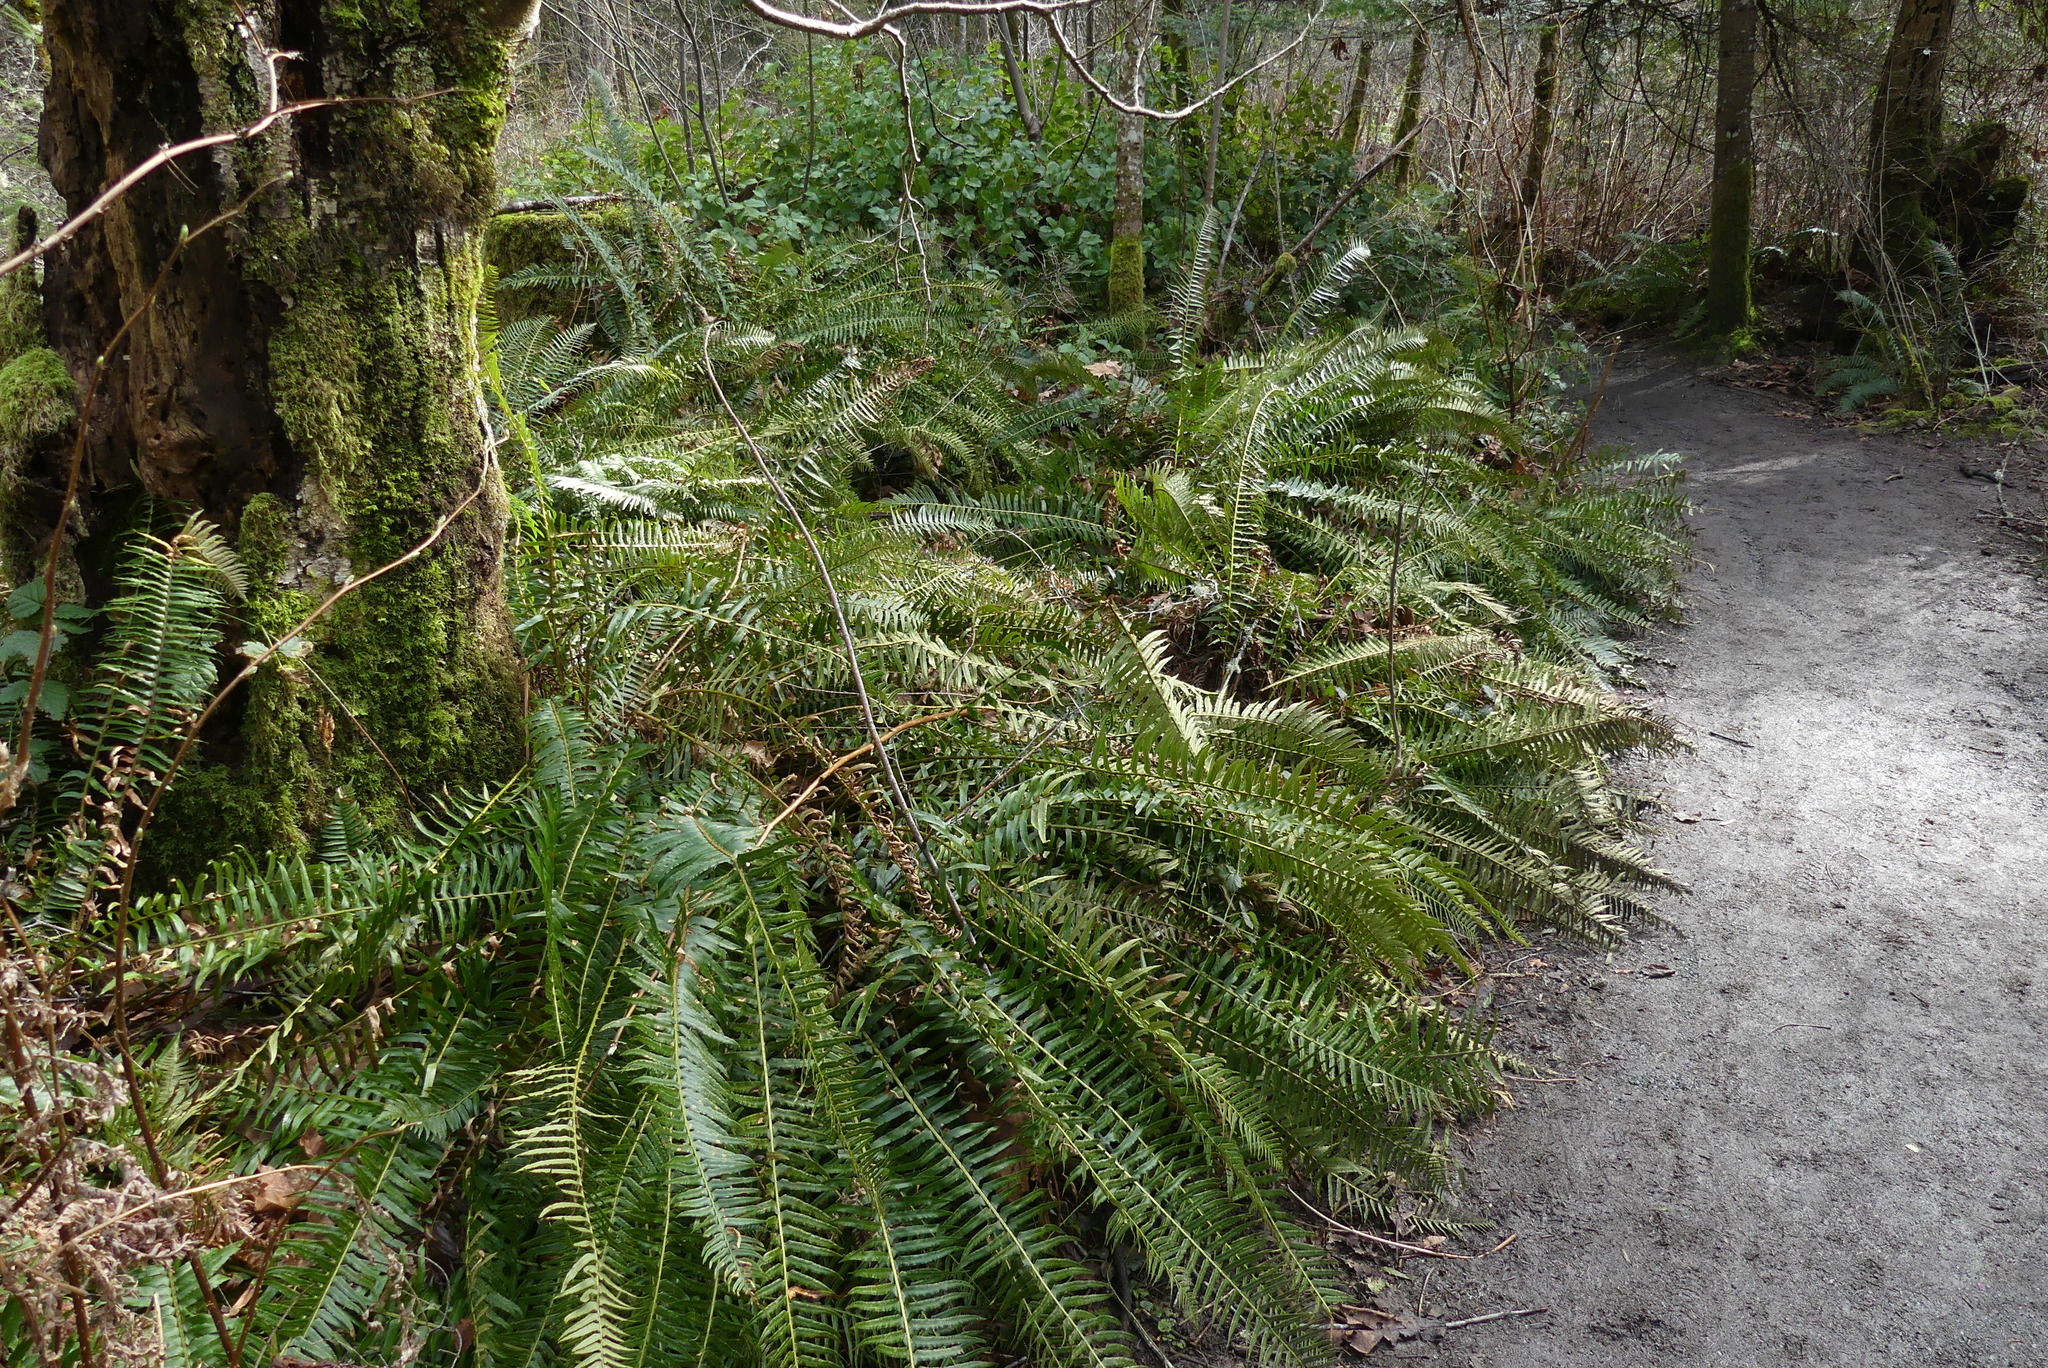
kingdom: Plantae
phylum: Tracheophyta
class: Polypodiopsida
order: Polypodiales
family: Dryopteridaceae
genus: Polystichum
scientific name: Polystichum munitum
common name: Western sword-fern
